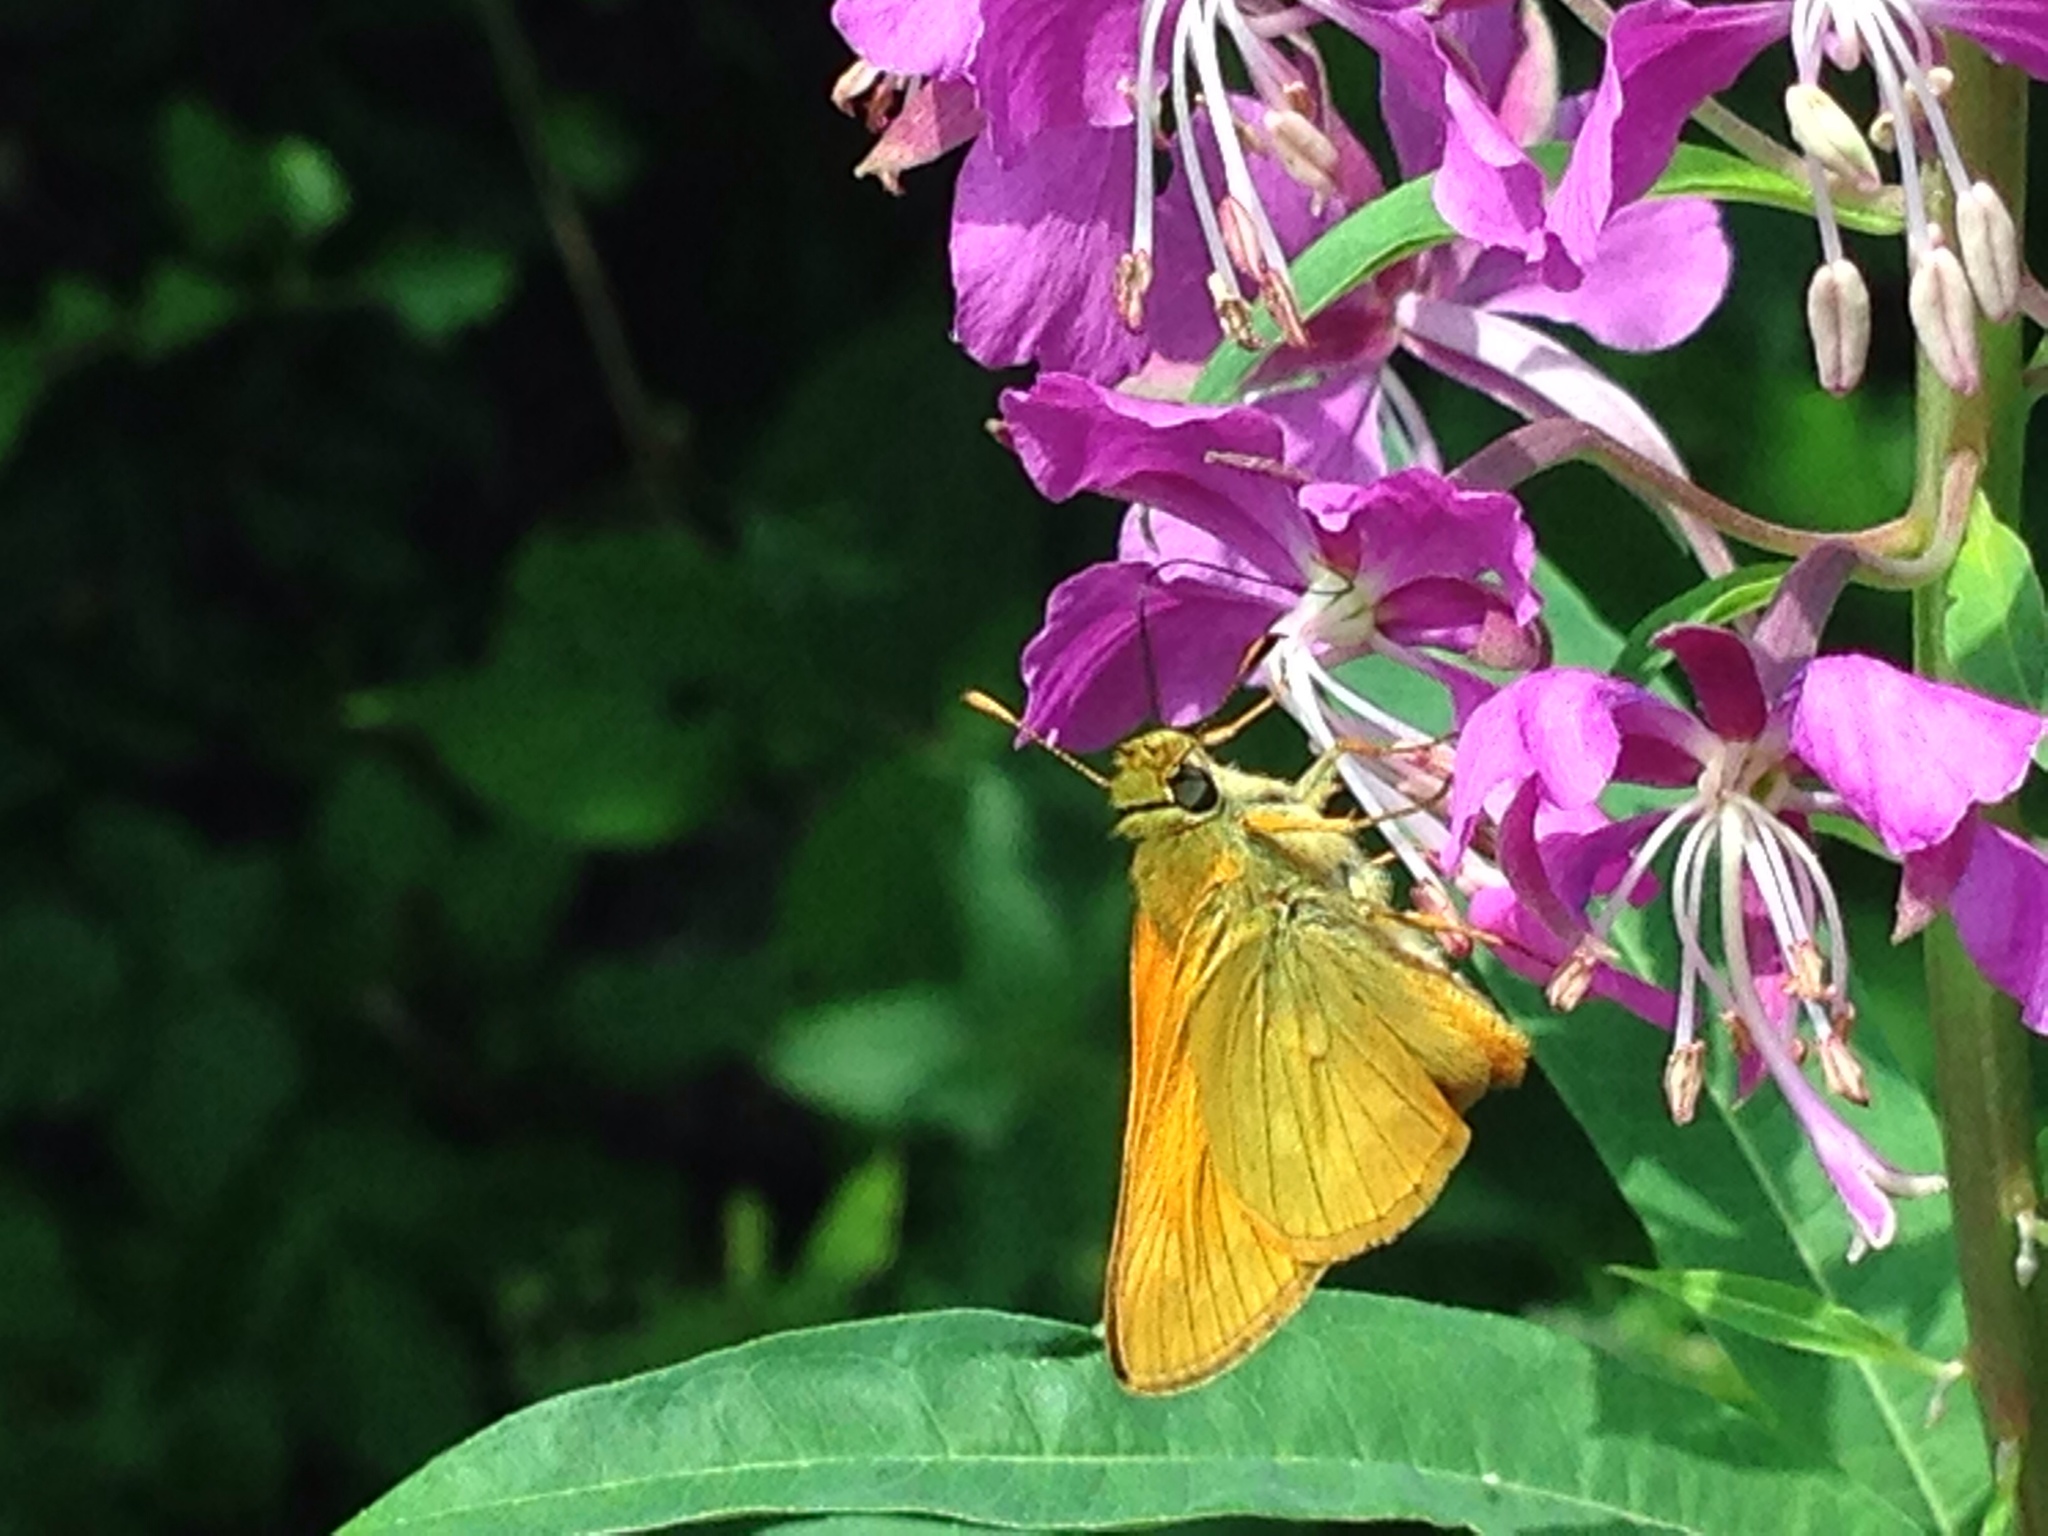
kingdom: Animalia
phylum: Arthropoda
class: Insecta
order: Lepidoptera
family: Hesperiidae
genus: Ochlodes
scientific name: Ochlodes venata
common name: Large skipper
